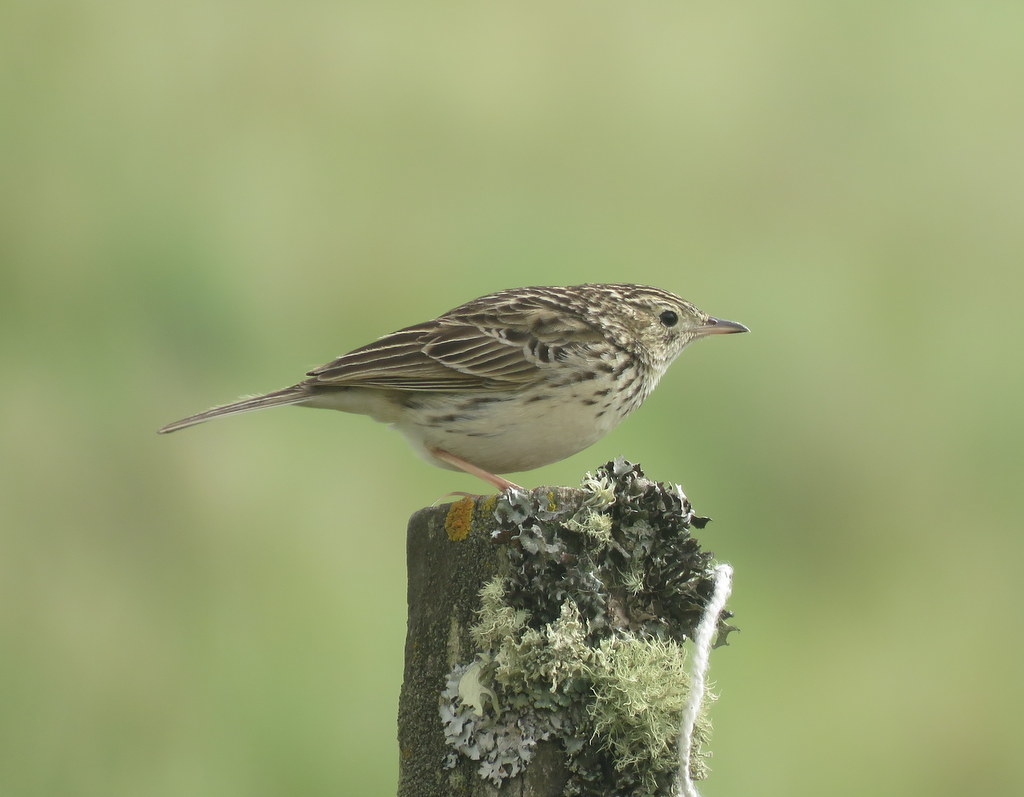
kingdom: Animalia
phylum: Chordata
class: Aves
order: Passeriformes
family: Motacillidae
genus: Anthus
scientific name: Anthus hellmayri
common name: Hellmayr's pipit
